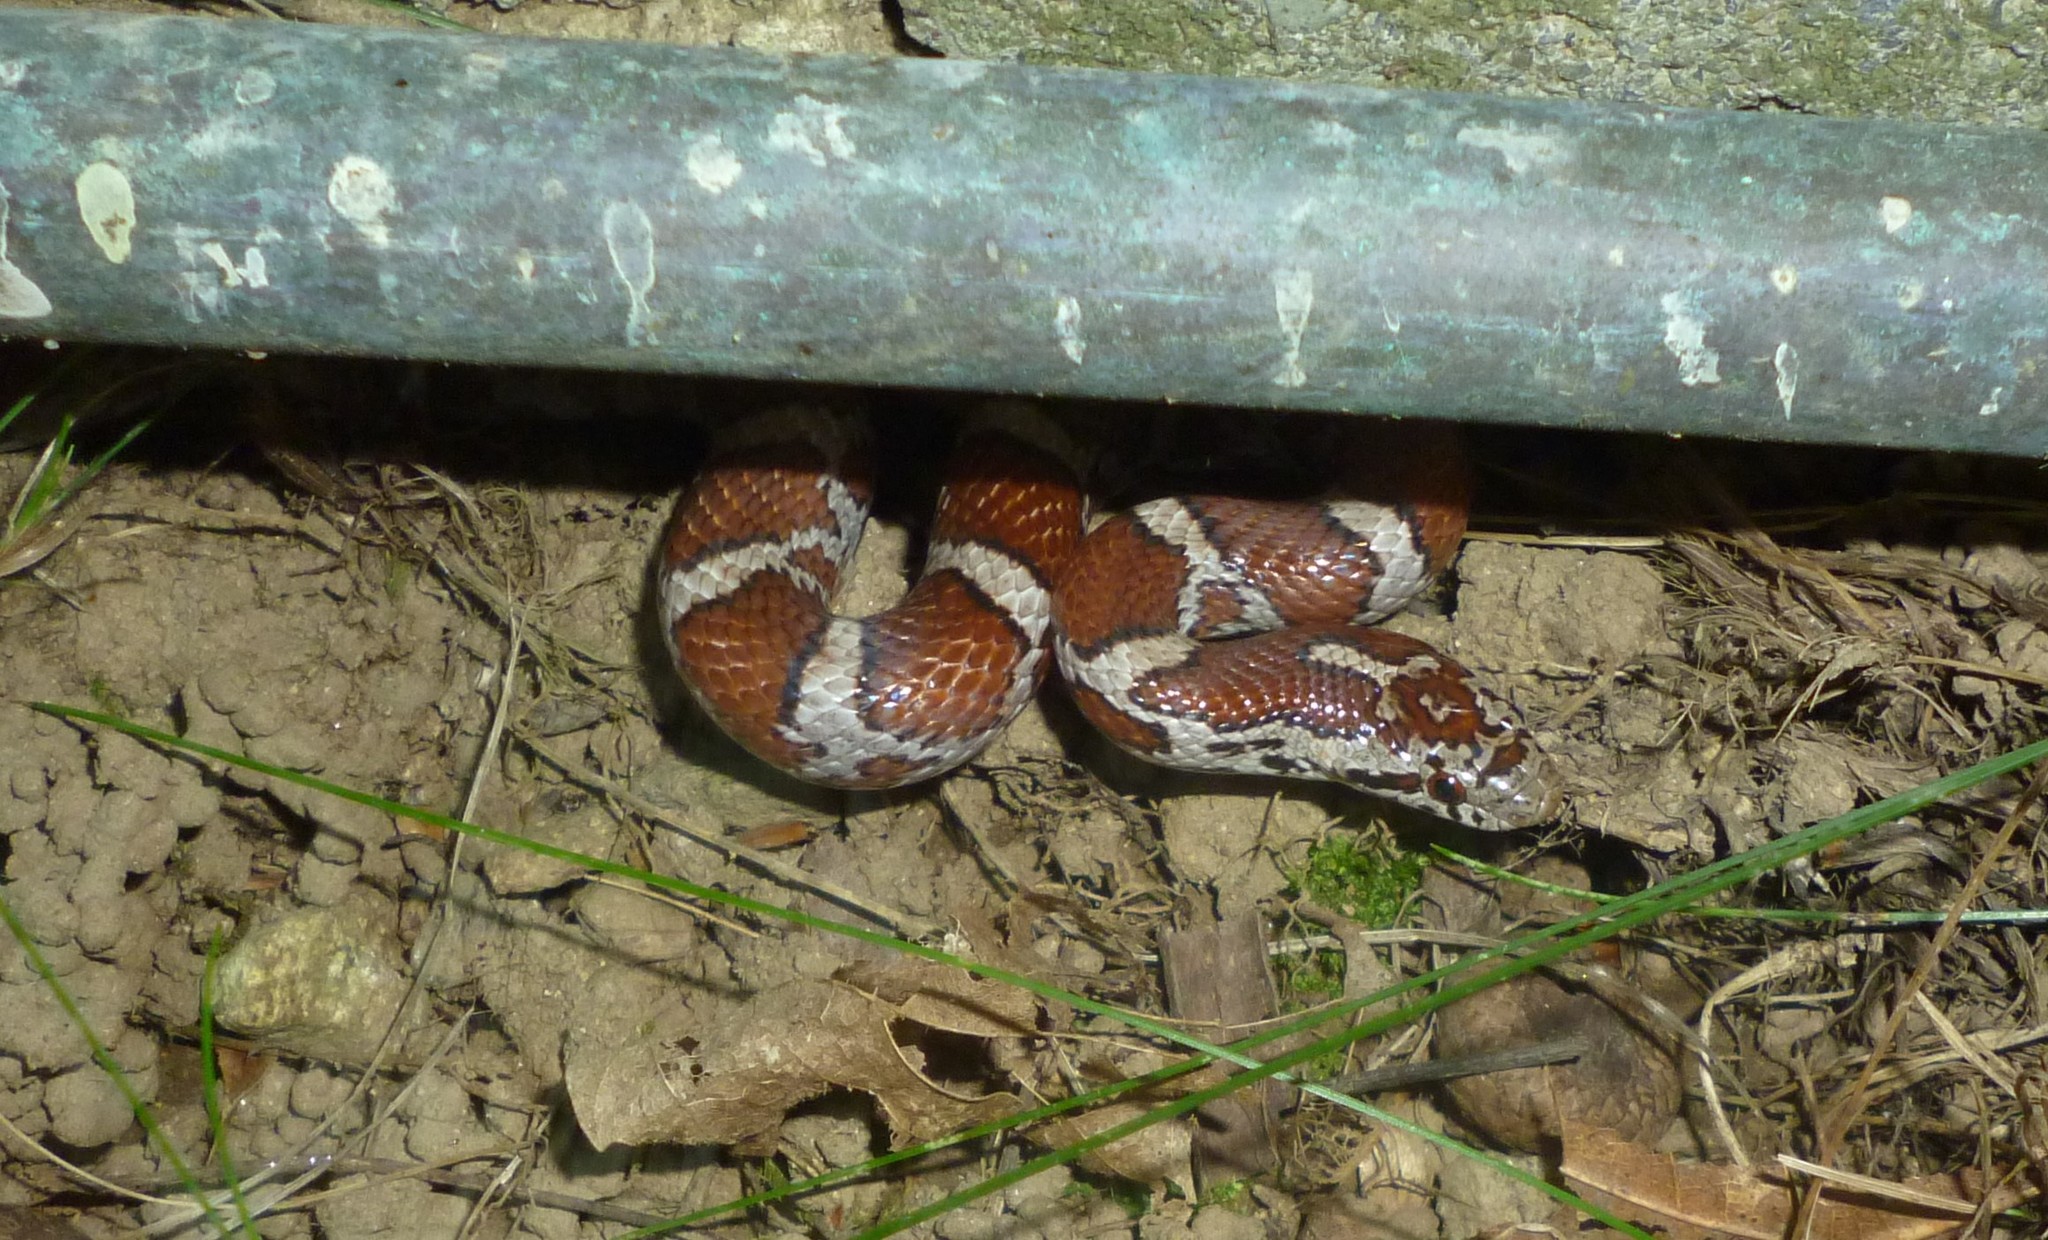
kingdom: Animalia
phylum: Chordata
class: Squamata
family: Colubridae
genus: Lampropeltis
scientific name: Lampropeltis triangulum
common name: Eastern milksnake
